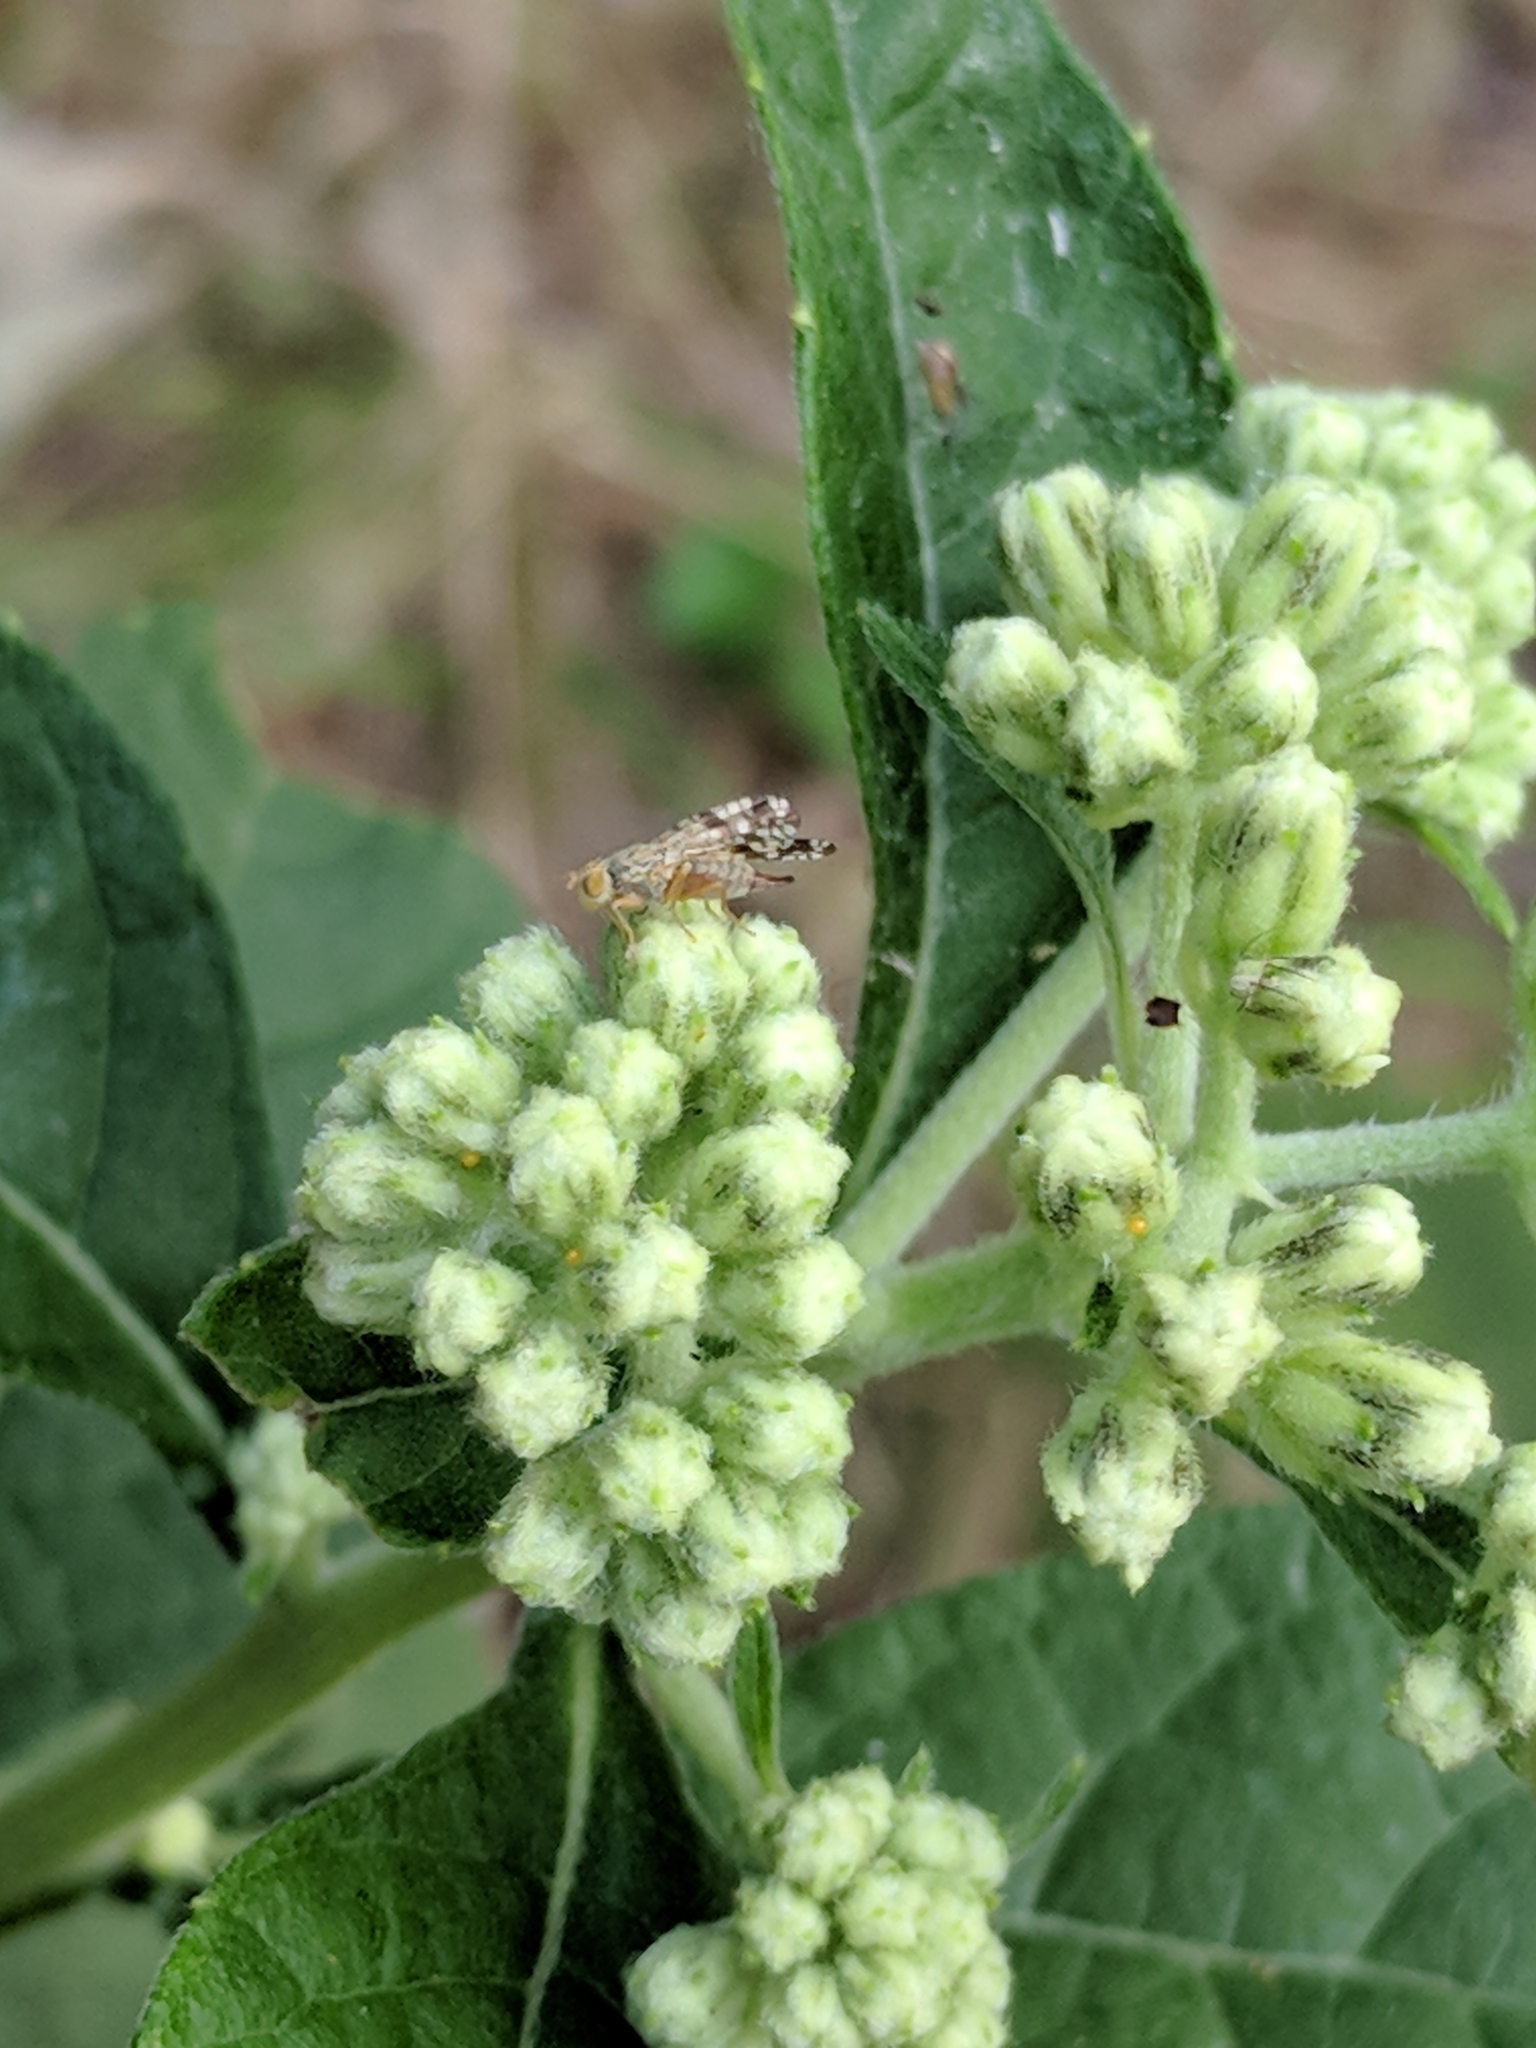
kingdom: Animalia
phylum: Arthropoda
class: Insecta
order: Diptera
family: Tephritidae
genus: Neotephritis
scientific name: Neotephritis finalis
